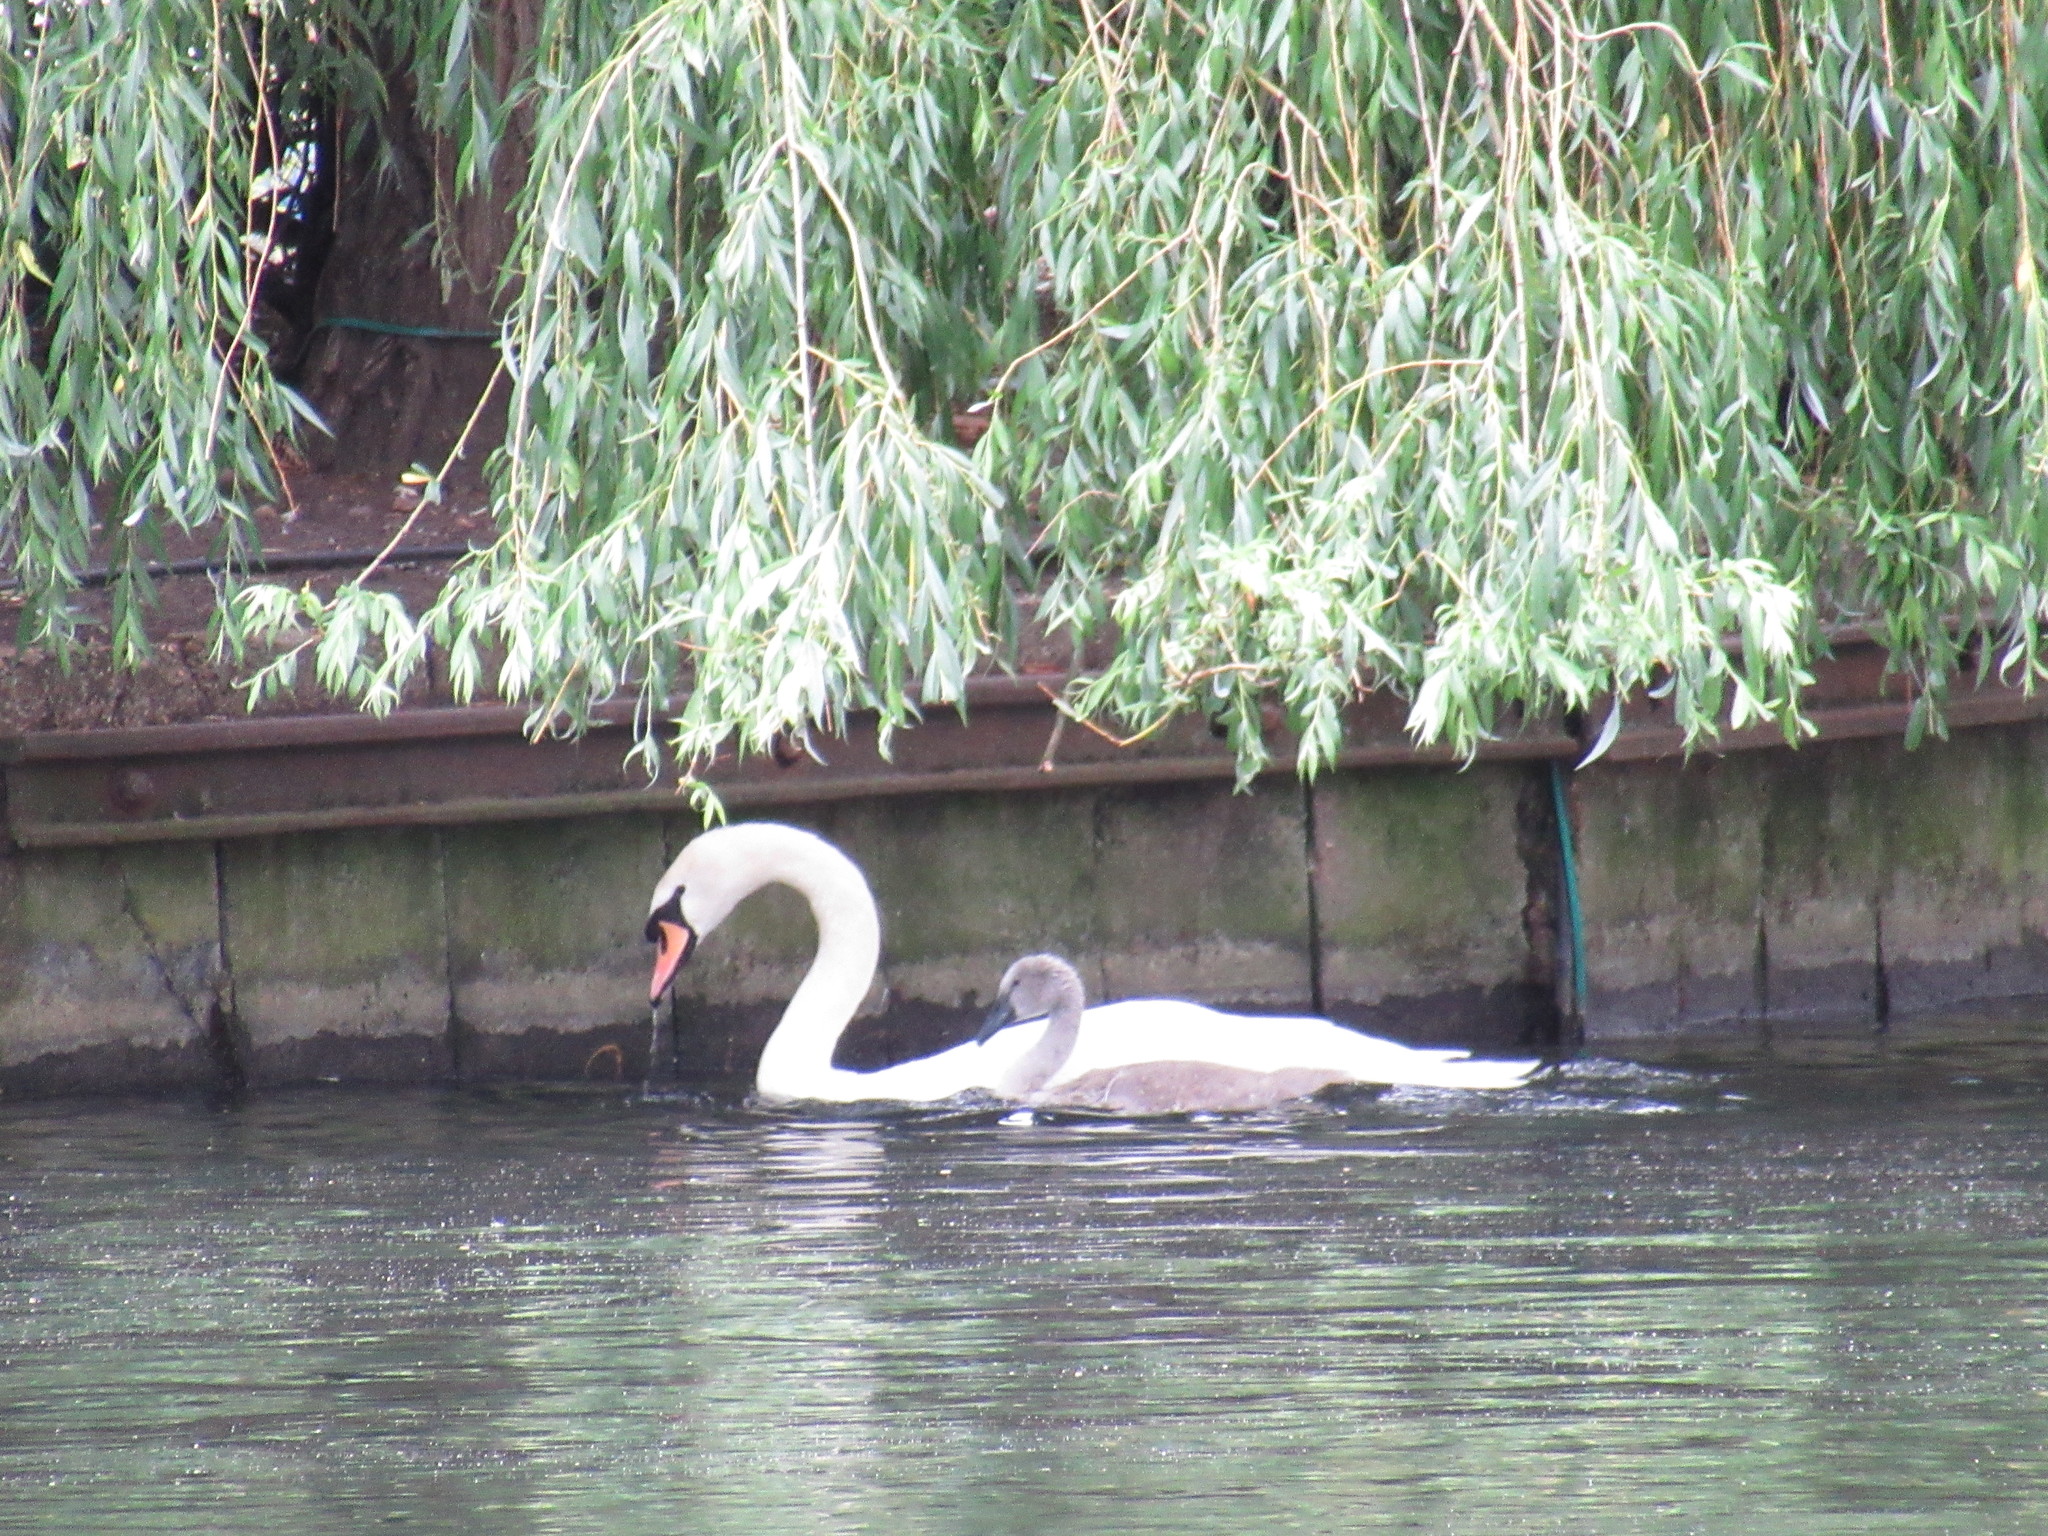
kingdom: Animalia
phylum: Chordata
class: Aves
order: Anseriformes
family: Anatidae
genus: Cygnus
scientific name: Cygnus olor
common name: Mute swan
